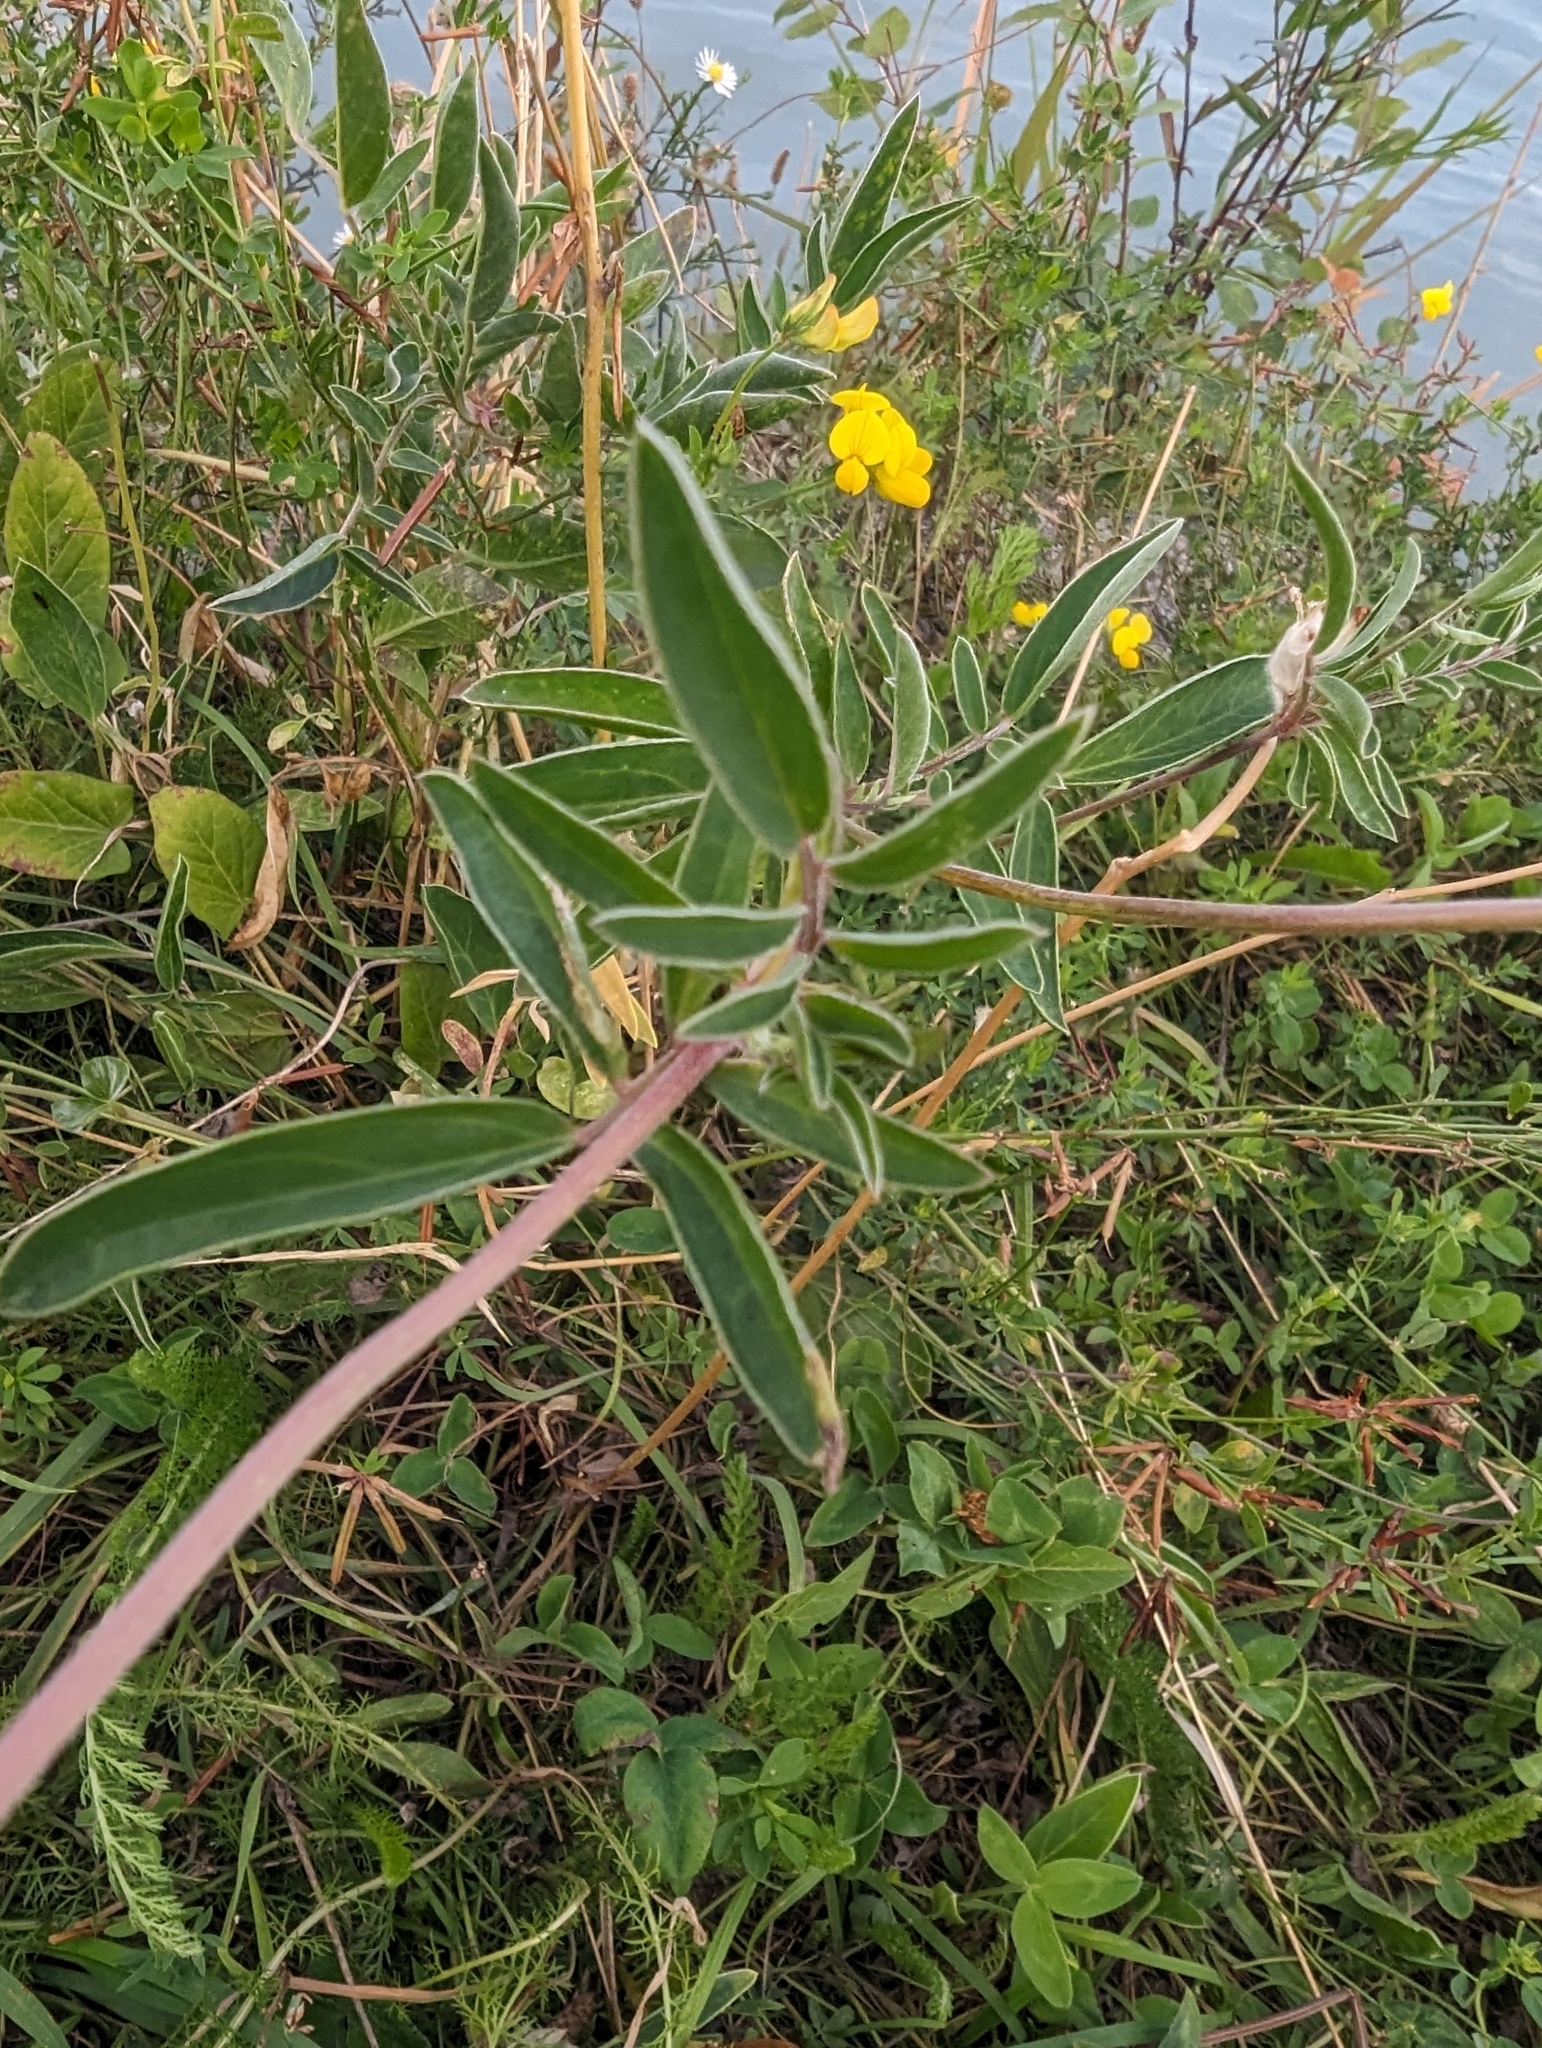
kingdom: Plantae
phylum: Tracheophyta
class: Magnoliopsida
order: Fabales
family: Fabaceae
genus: Anthyllis
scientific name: Anthyllis vulneraria
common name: Kidney vetch
